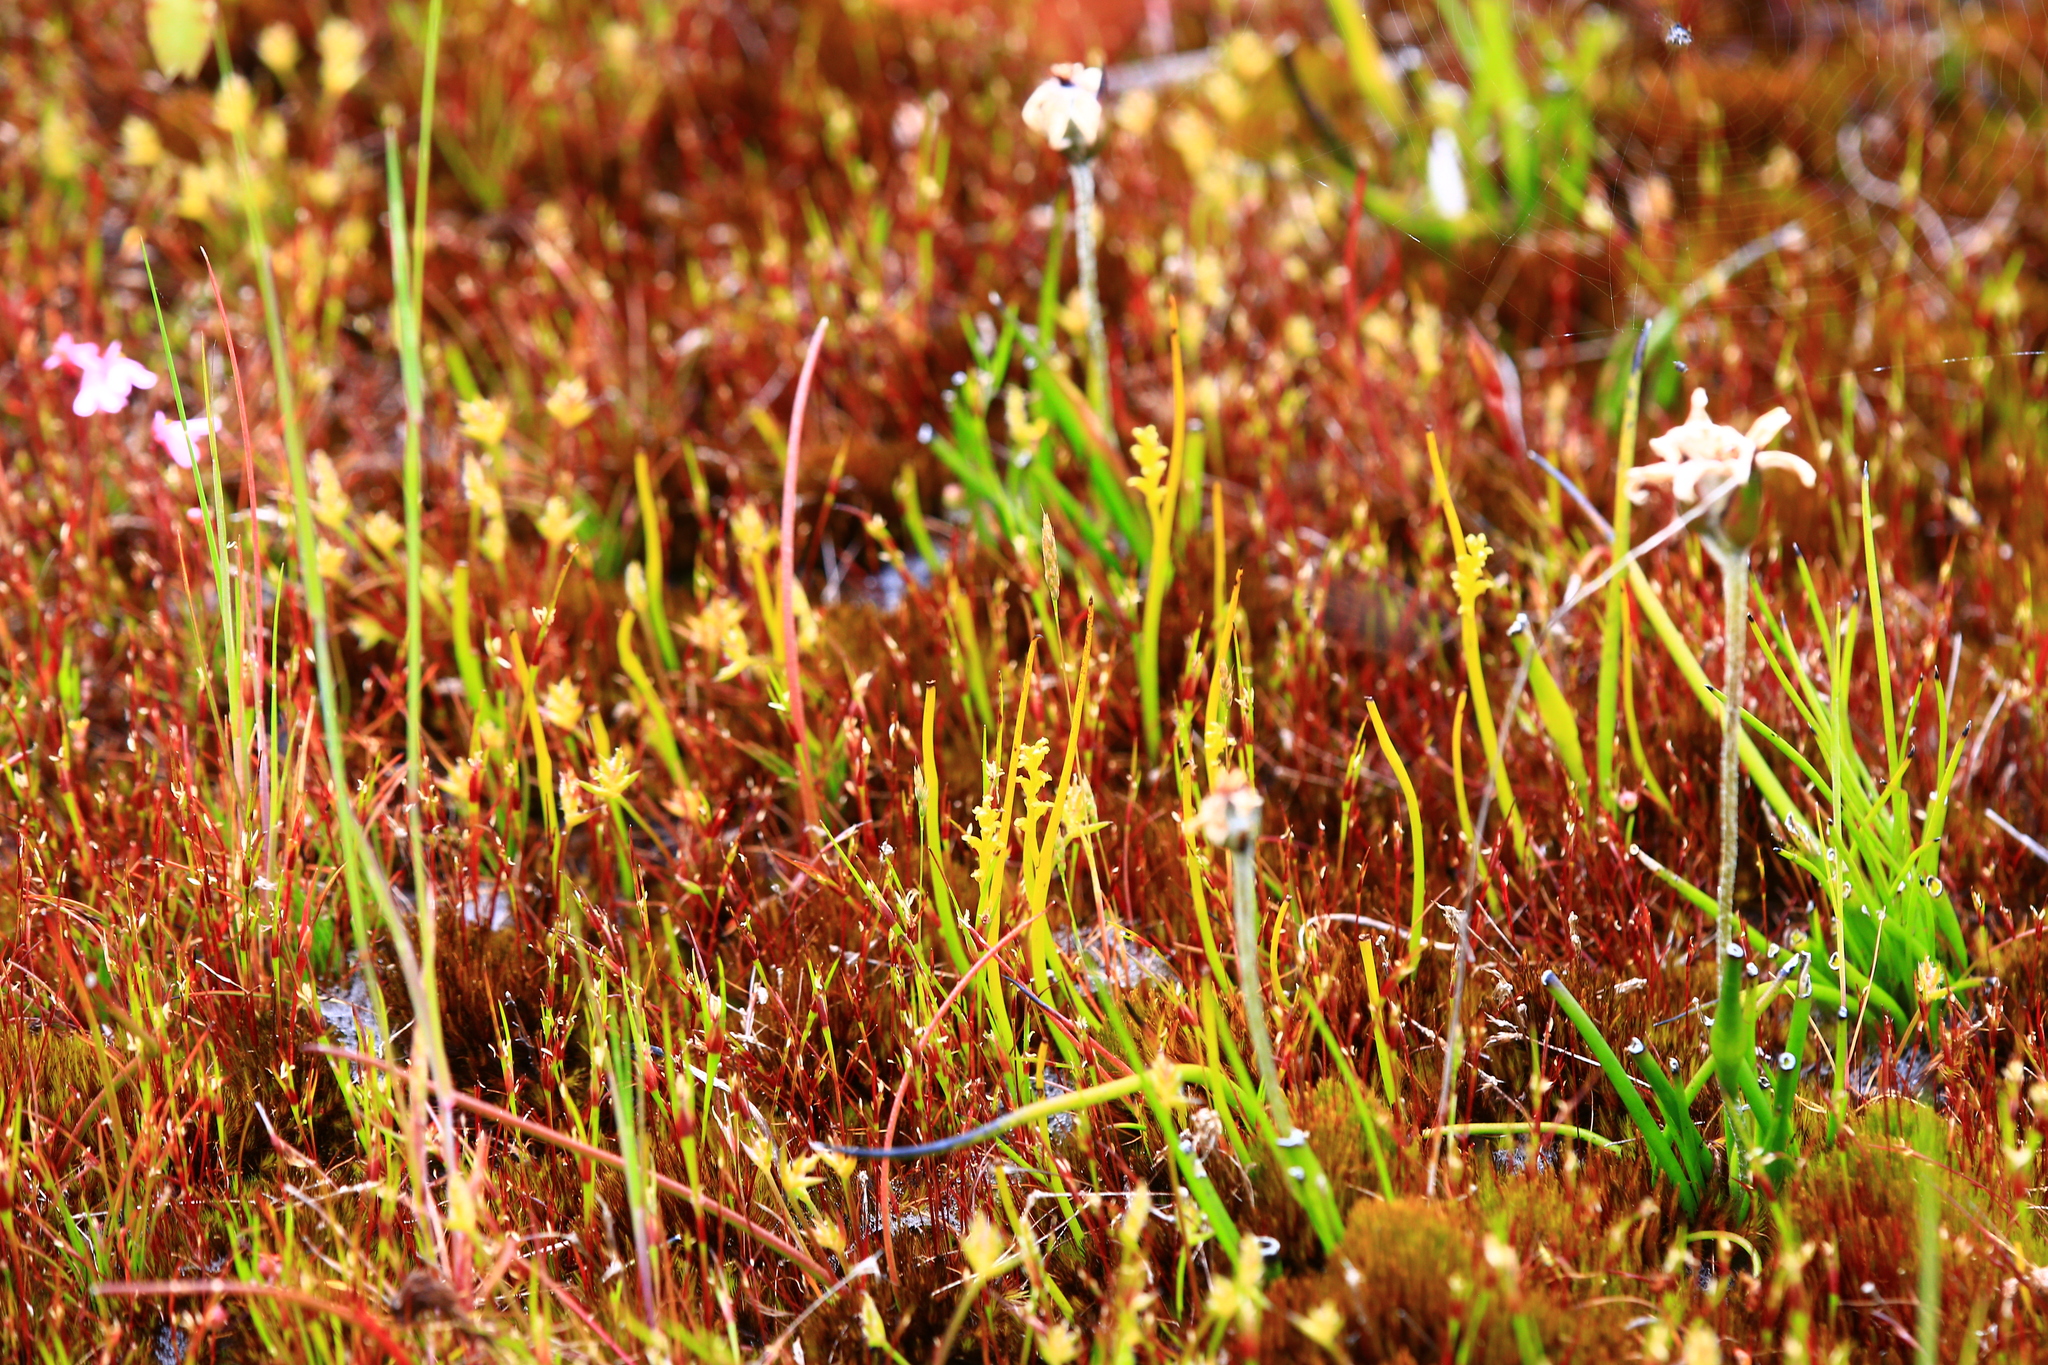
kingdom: Plantae
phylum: Tracheophyta
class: Liliopsida
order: Asparagales
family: Orchidaceae
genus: Microtis
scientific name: Microtis atrata
